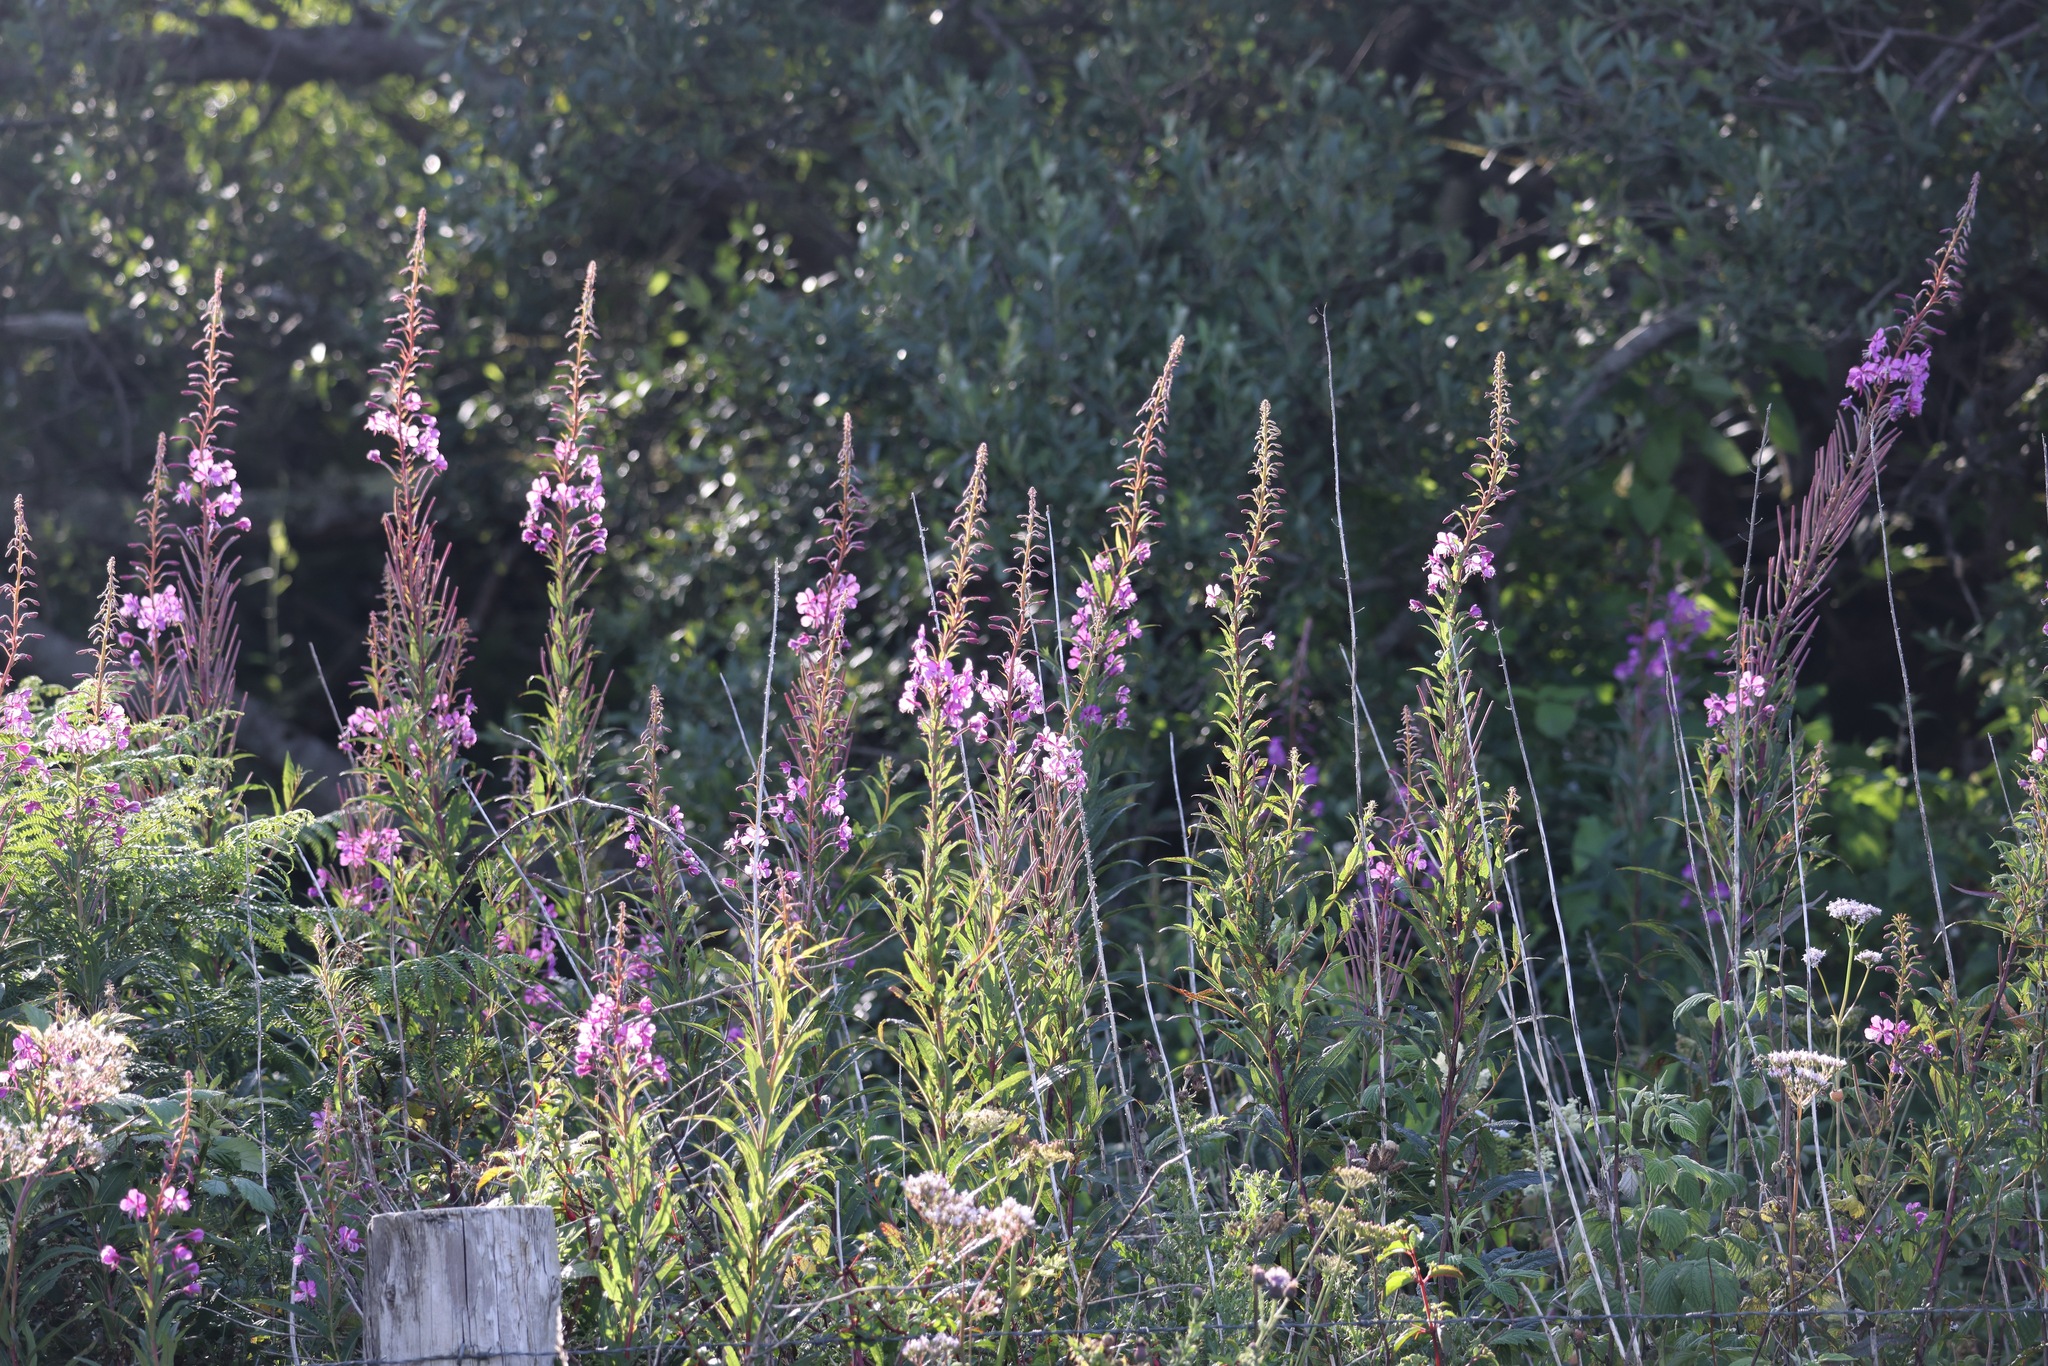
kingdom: Plantae
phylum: Tracheophyta
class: Magnoliopsida
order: Myrtales
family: Onagraceae
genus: Chamaenerion
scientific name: Chamaenerion angustifolium
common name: Fireweed
